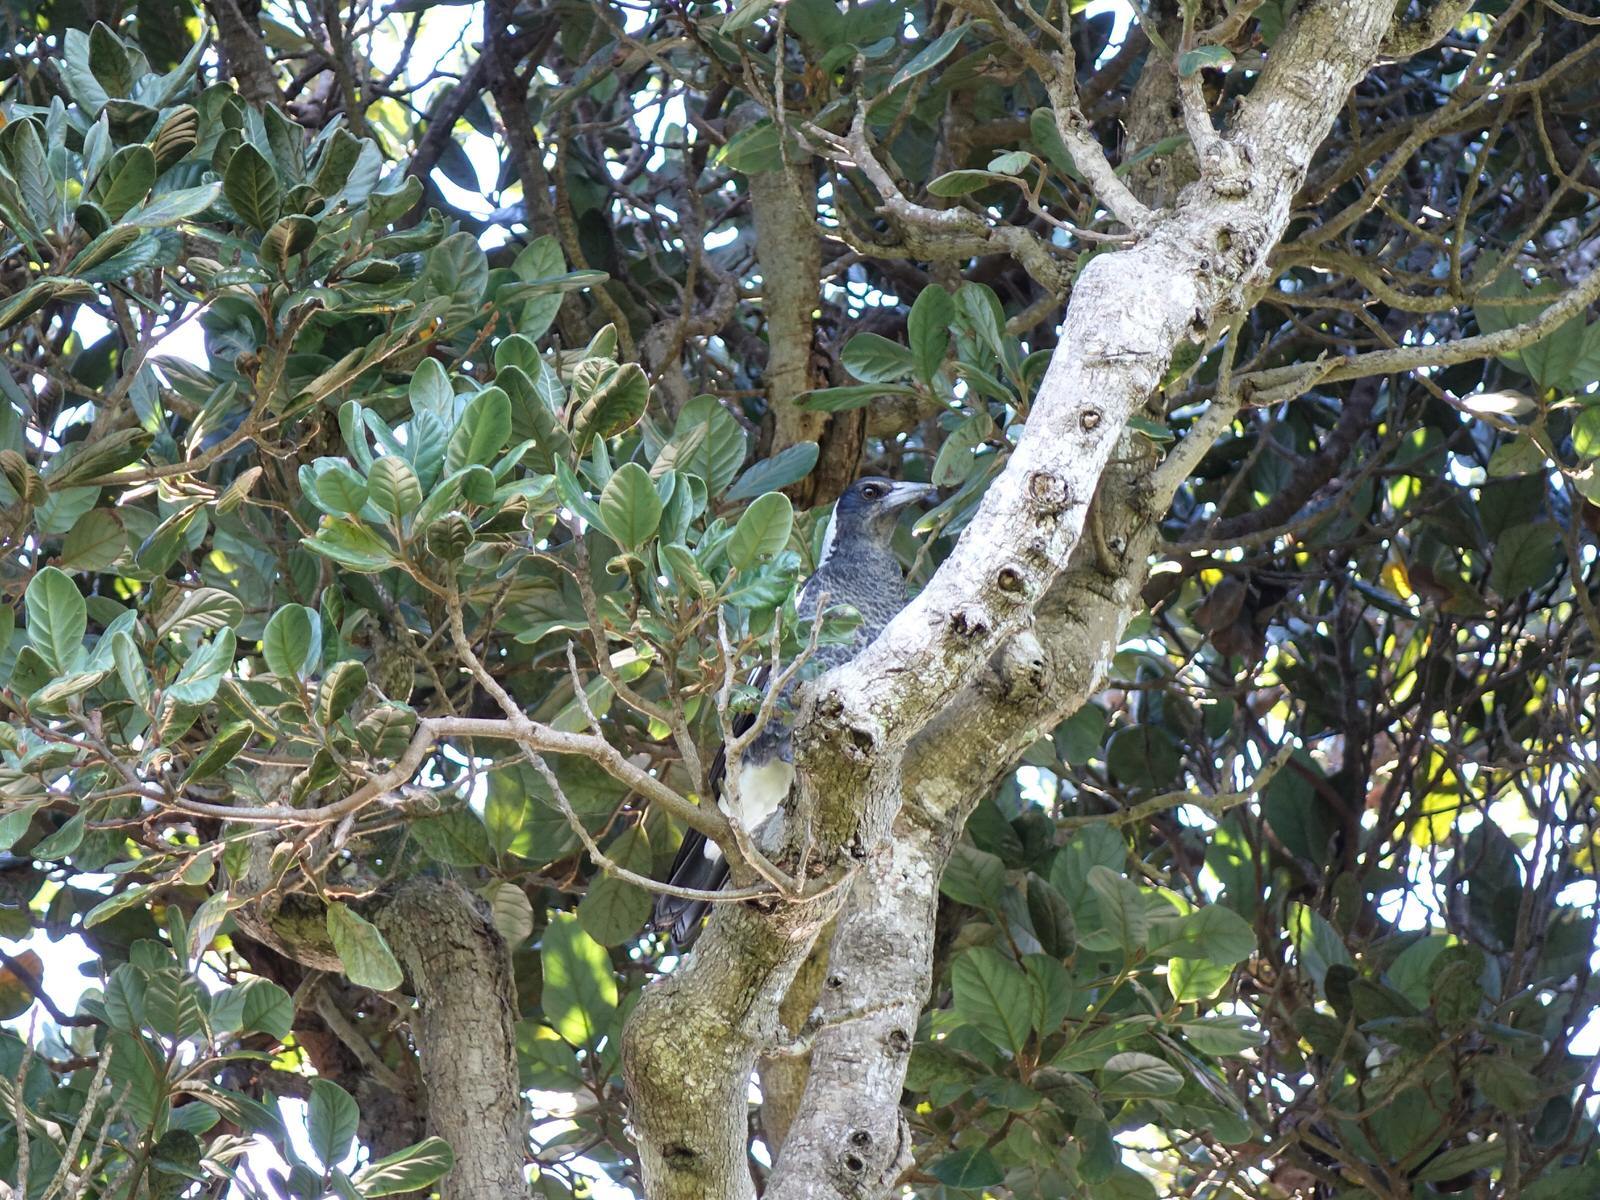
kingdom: Animalia
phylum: Chordata
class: Aves
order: Passeriformes
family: Cracticidae
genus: Gymnorhina
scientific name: Gymnorhina tibicen
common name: Australian magpie
